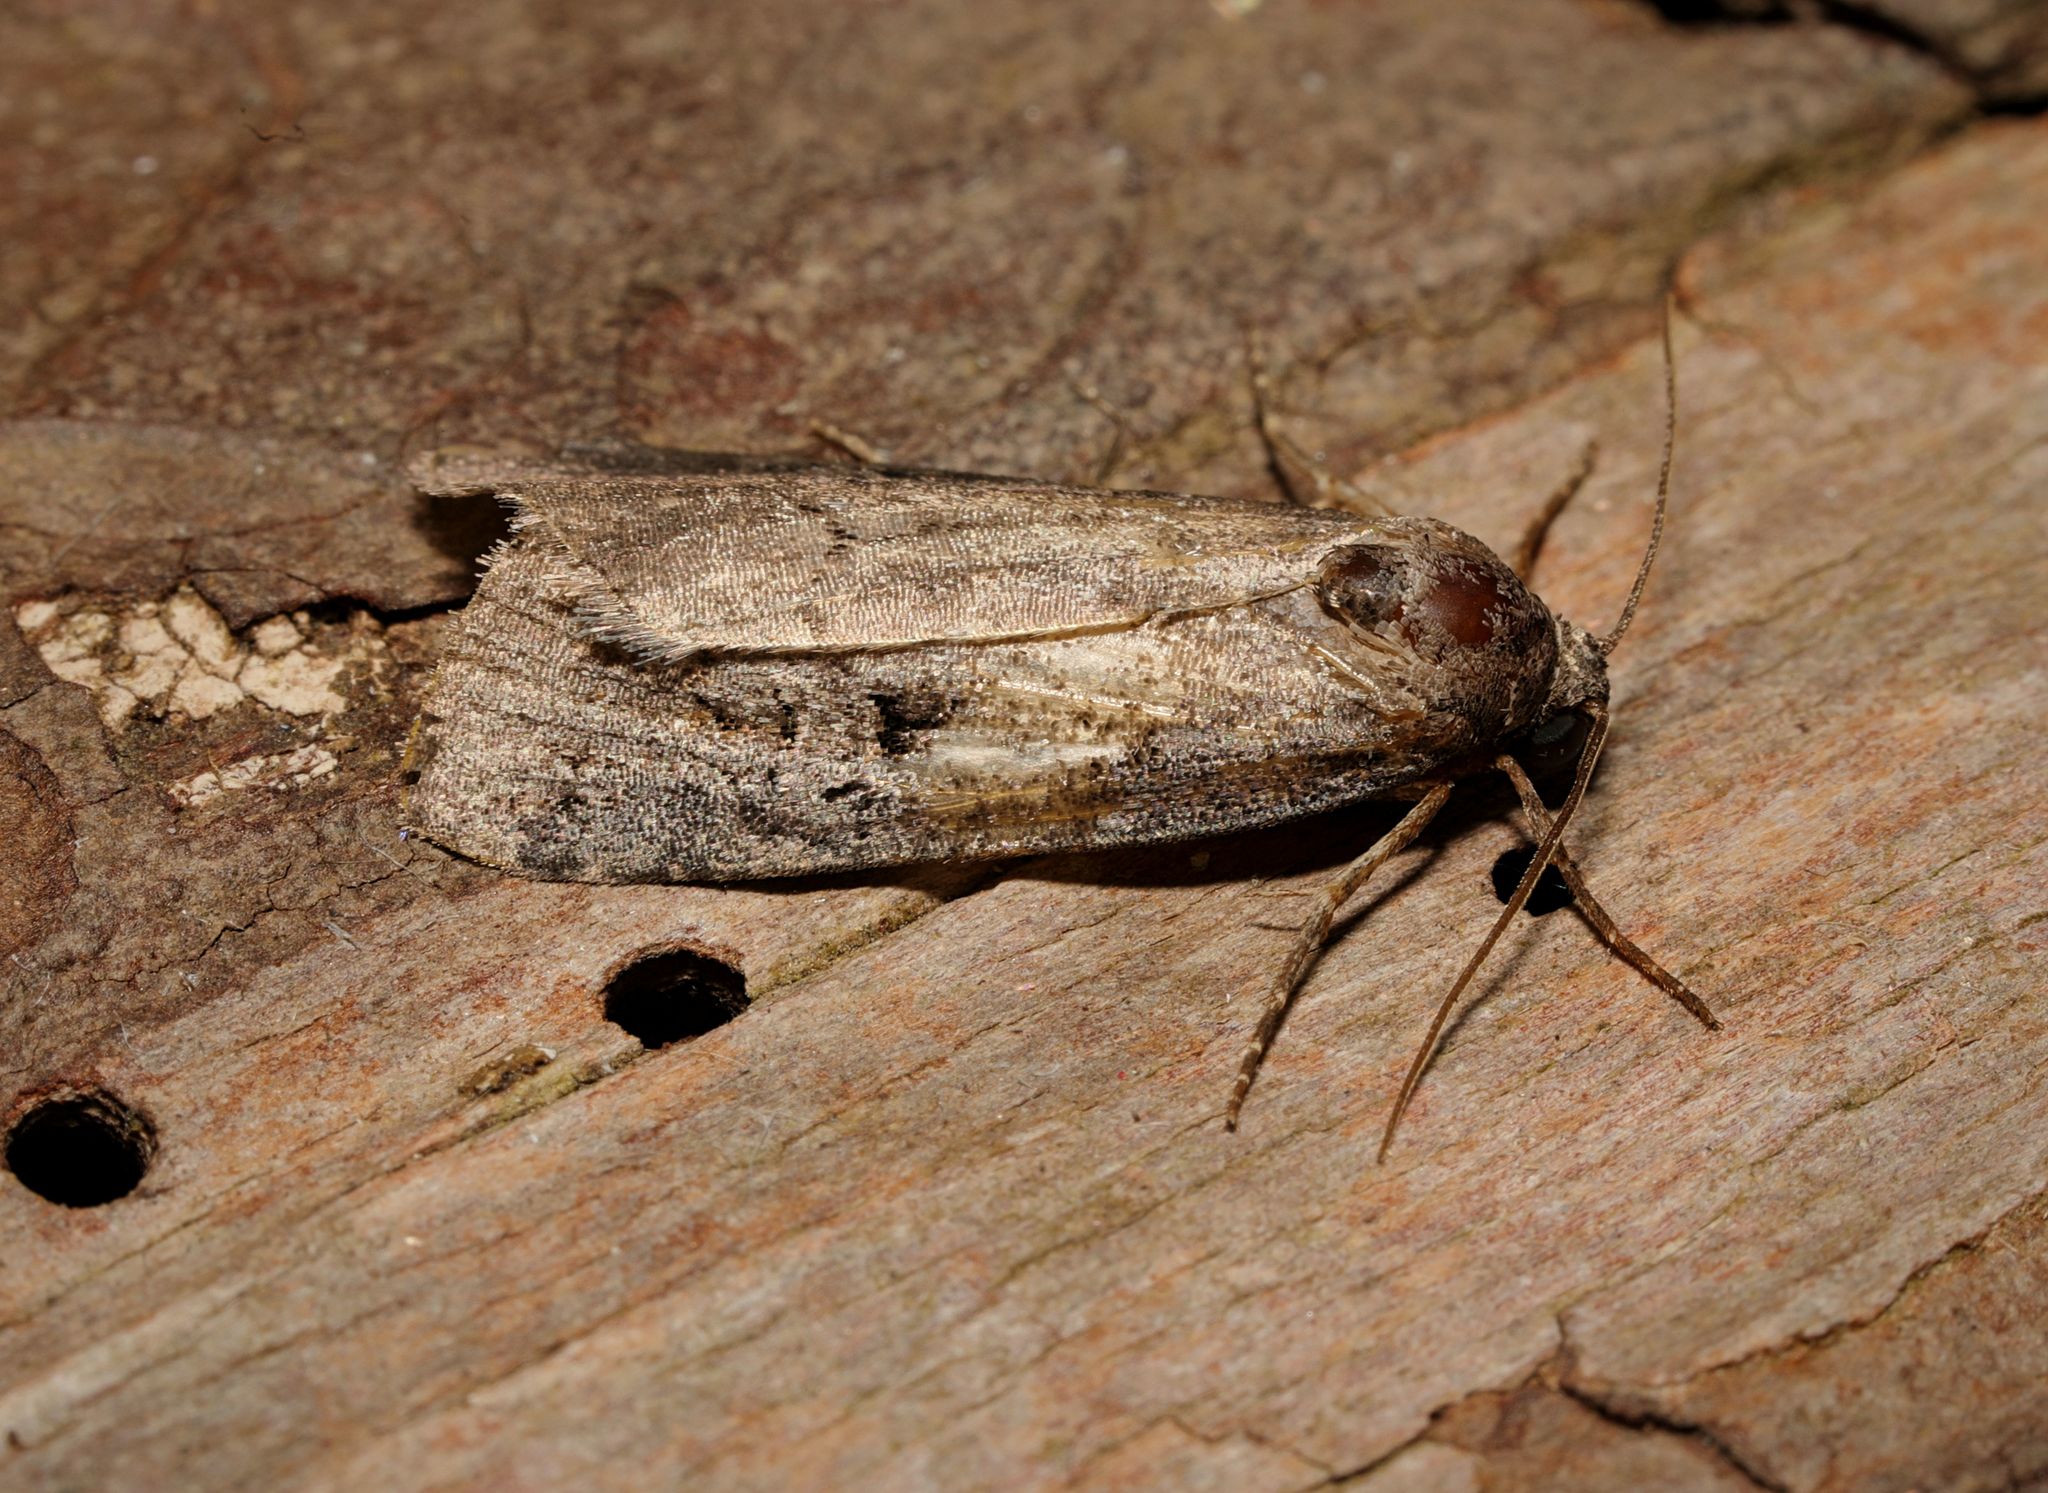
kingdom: Animalia
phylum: Arthropoda
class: Insecta
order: Lepidoptera
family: Noctuidae
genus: Stilbia
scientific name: Stilbia anomala
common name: Anomalous
